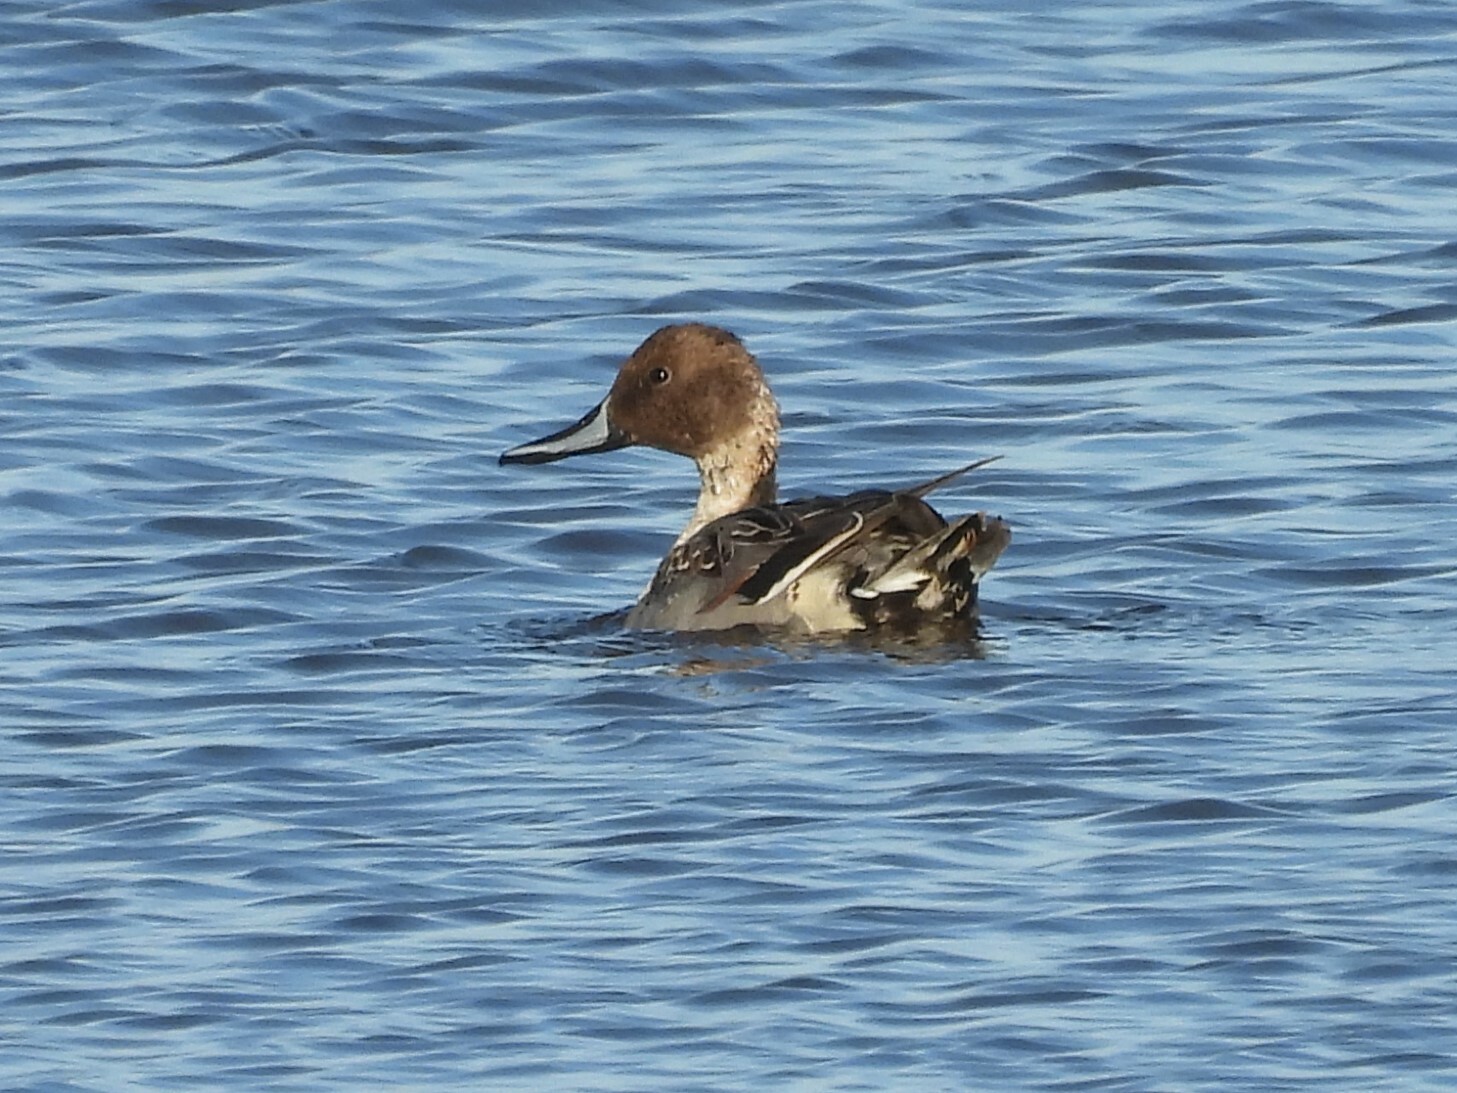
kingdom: Animalia
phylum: Chordata
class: Aves
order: Anseriformes
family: Anatidae
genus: Anas
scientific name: Anas acuta
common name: Northern pintail
